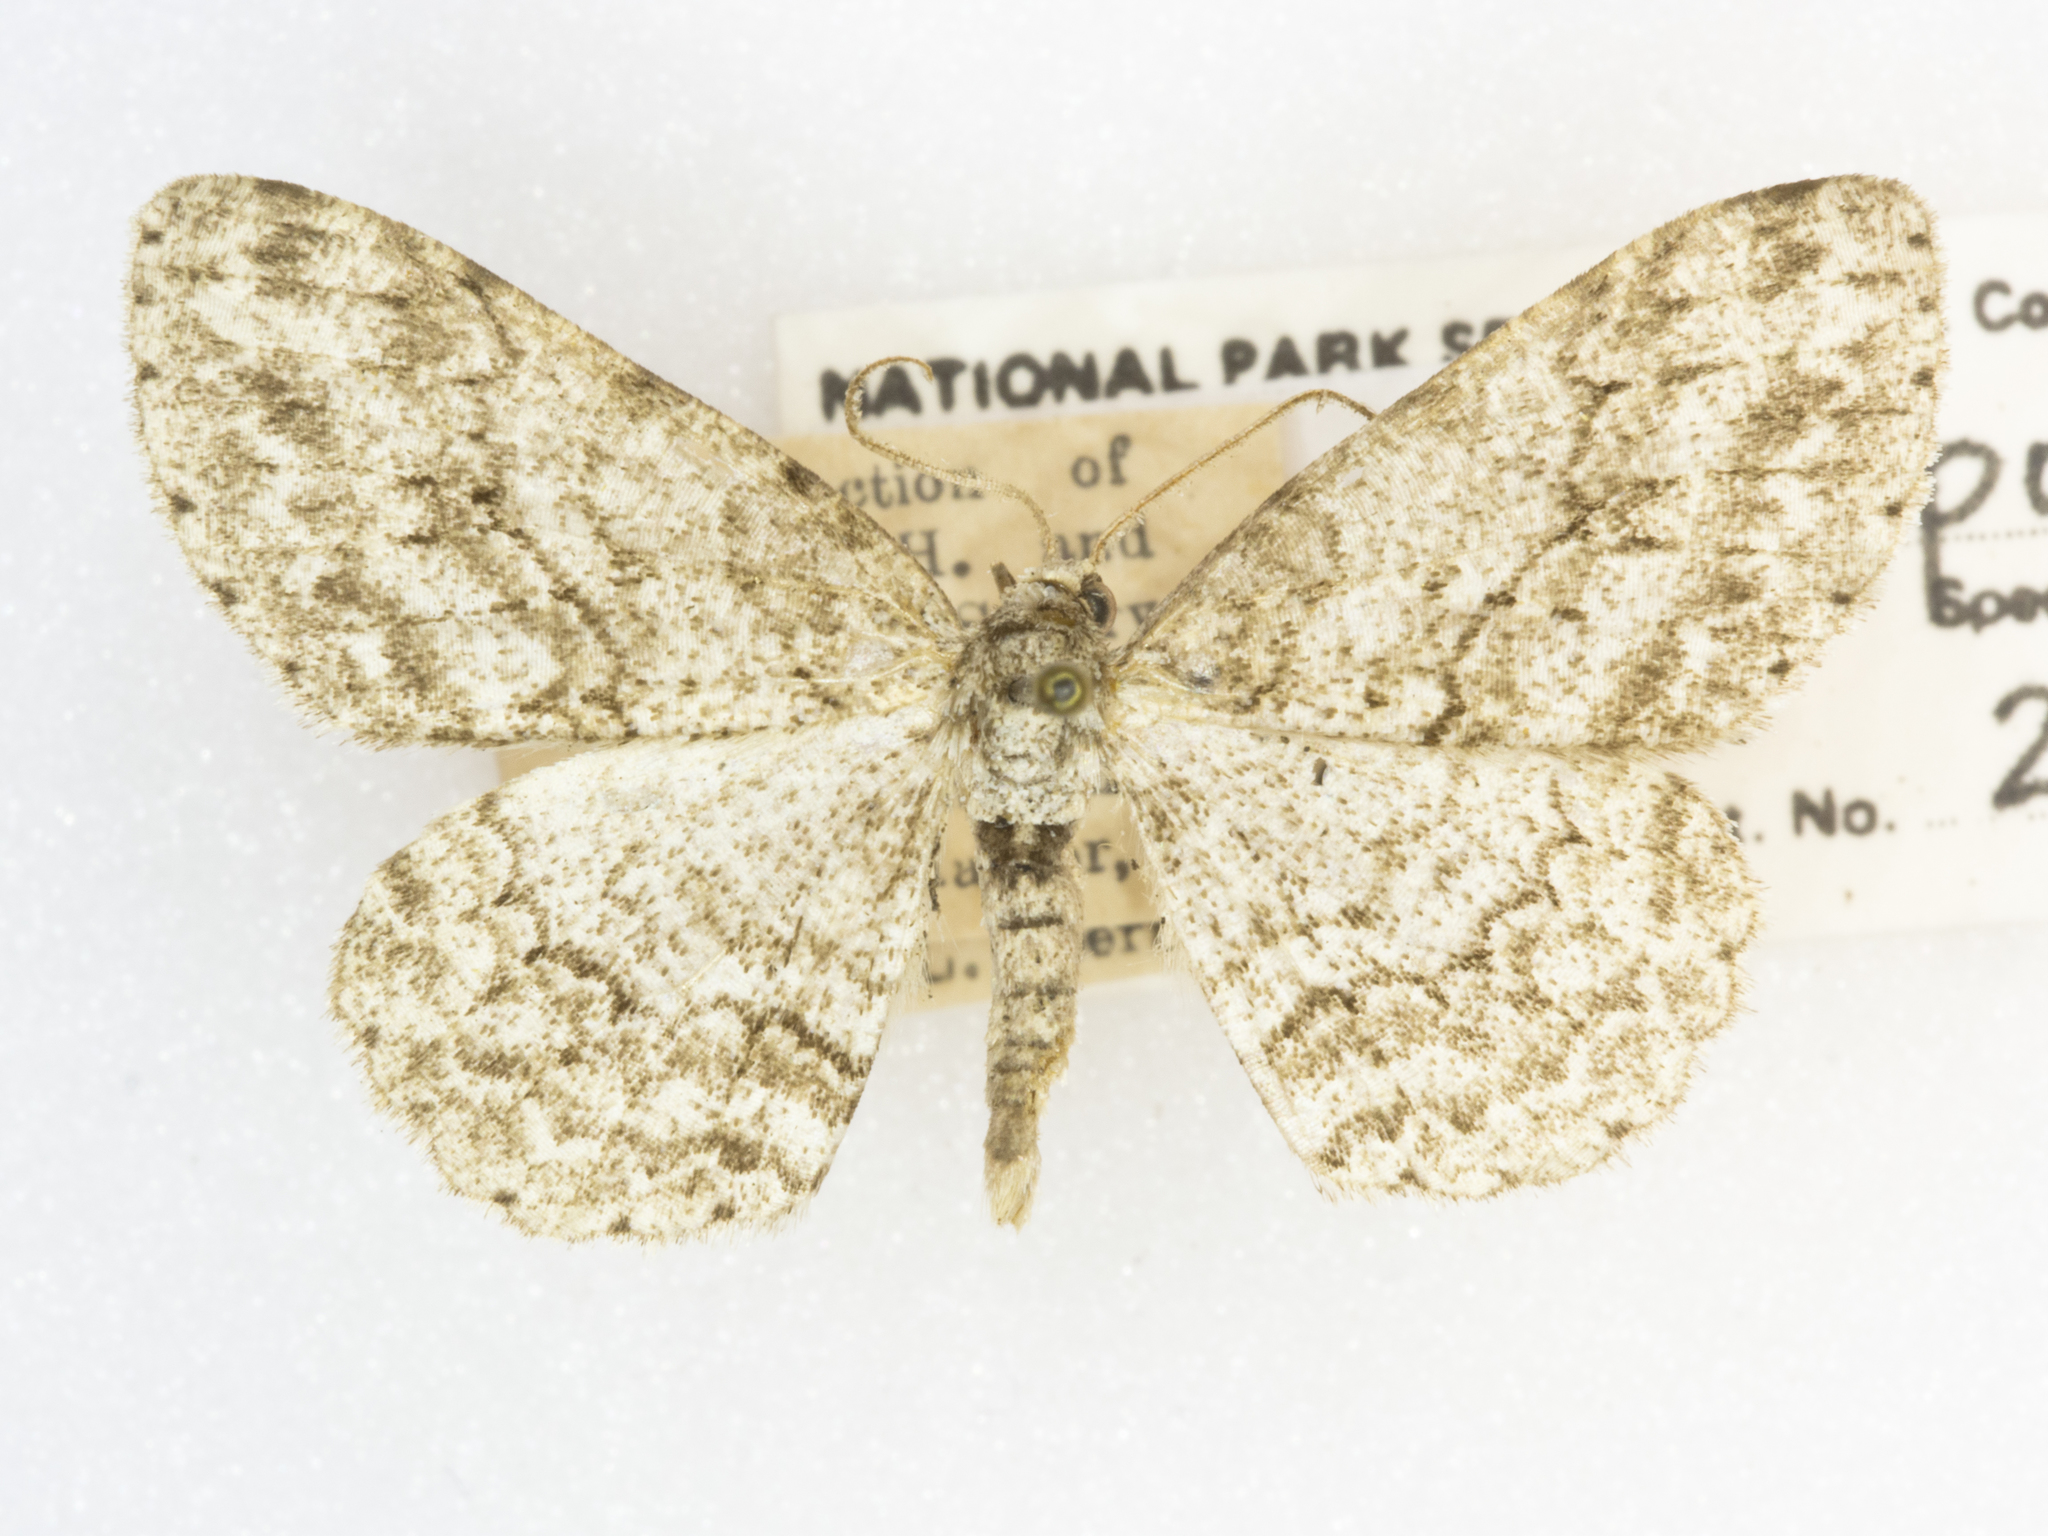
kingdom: Animalia
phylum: Arthropoda
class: Insecta
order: Lepidoptera
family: Geometridae
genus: Ectropis
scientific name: Ectropis crepuscularia
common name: Engrailed
